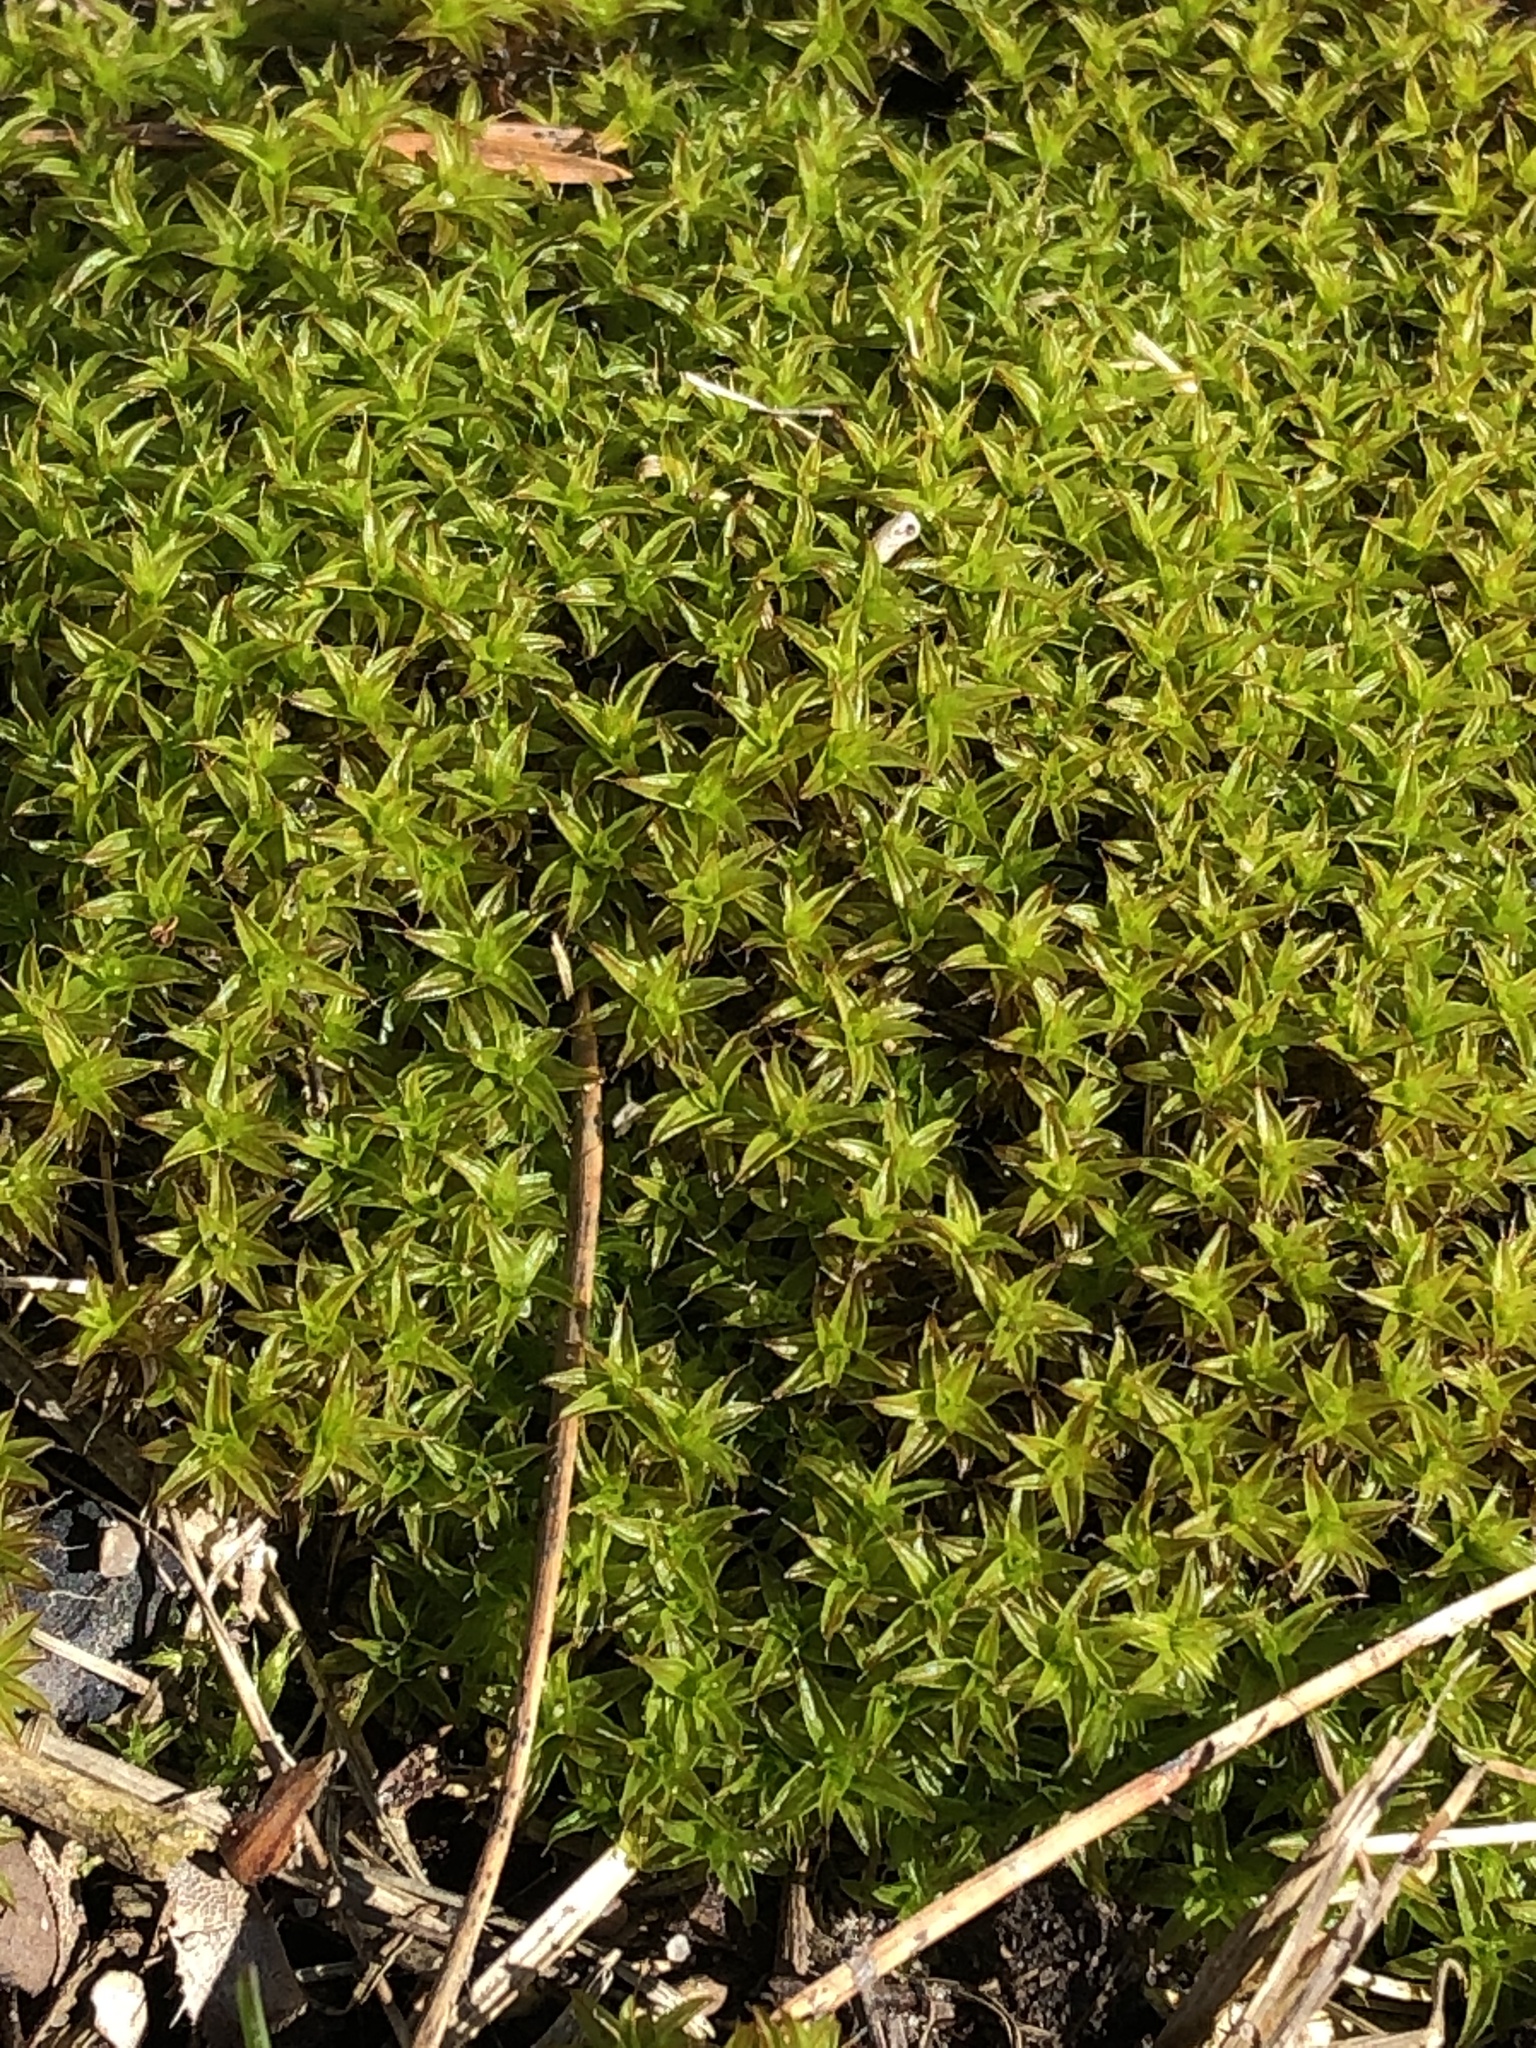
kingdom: Plantae
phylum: Bryophyta
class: Bryopsida
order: Pottiales
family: Pottiaceae
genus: Syntrichia
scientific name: Syntrichia ruralis
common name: Sidewalk screw moss
